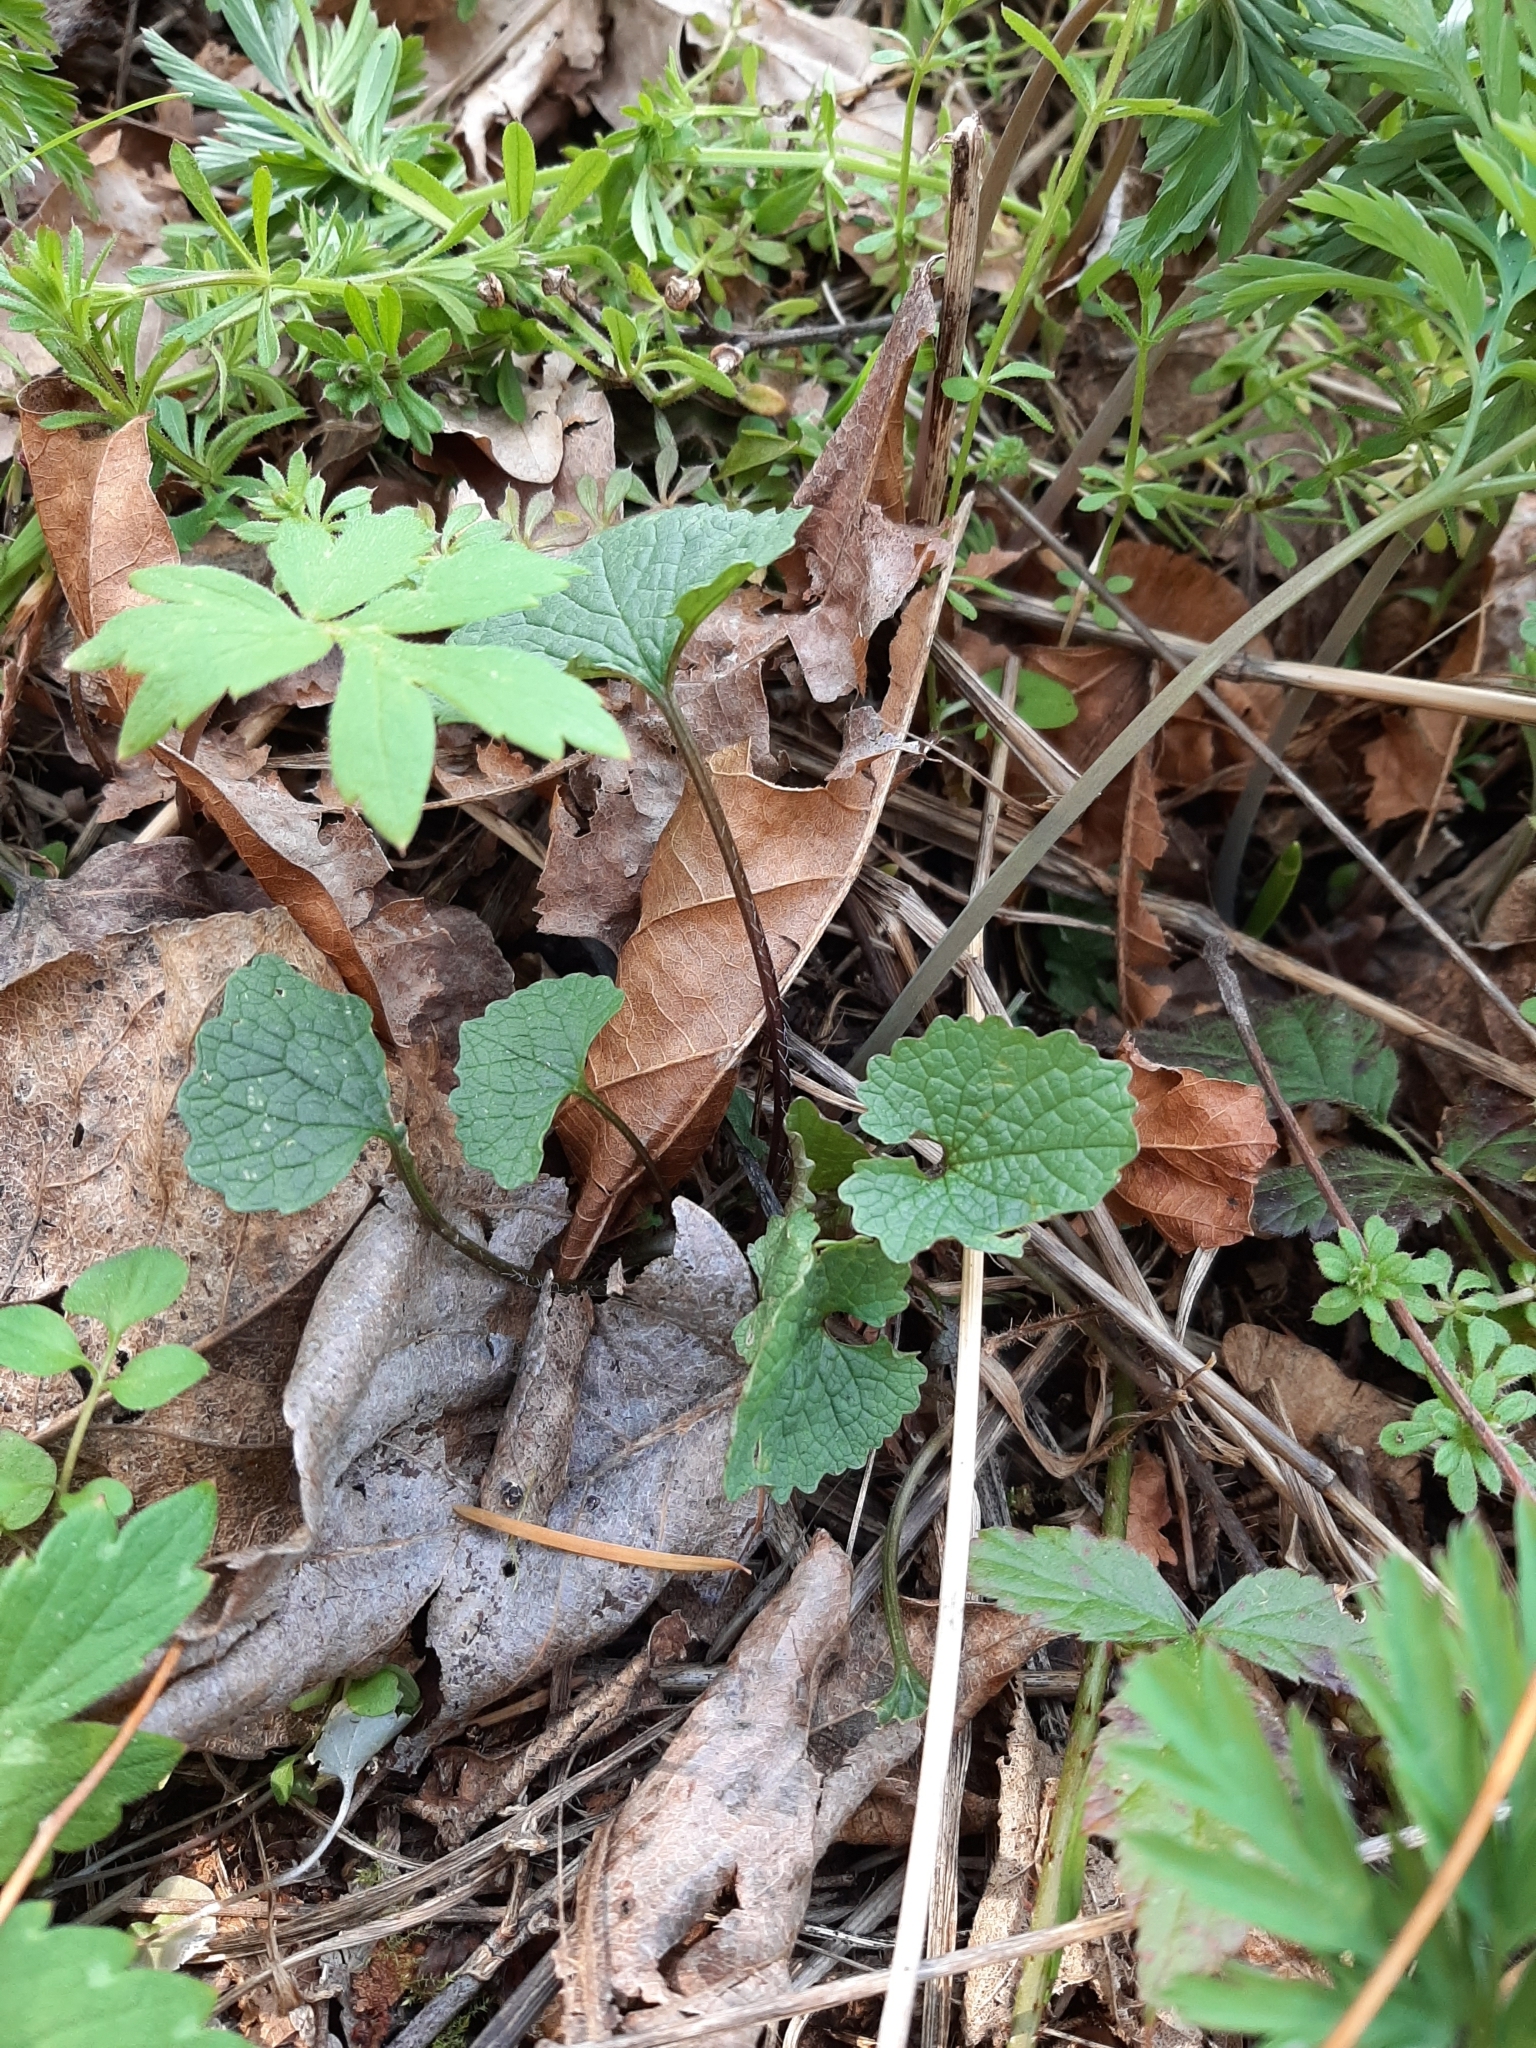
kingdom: Plantae
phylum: Tracheophyta
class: Magnoliopsida
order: Brassicales
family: Brassicaceae
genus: Alliaria
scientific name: Alliaria petiolata
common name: Garlic mustard
